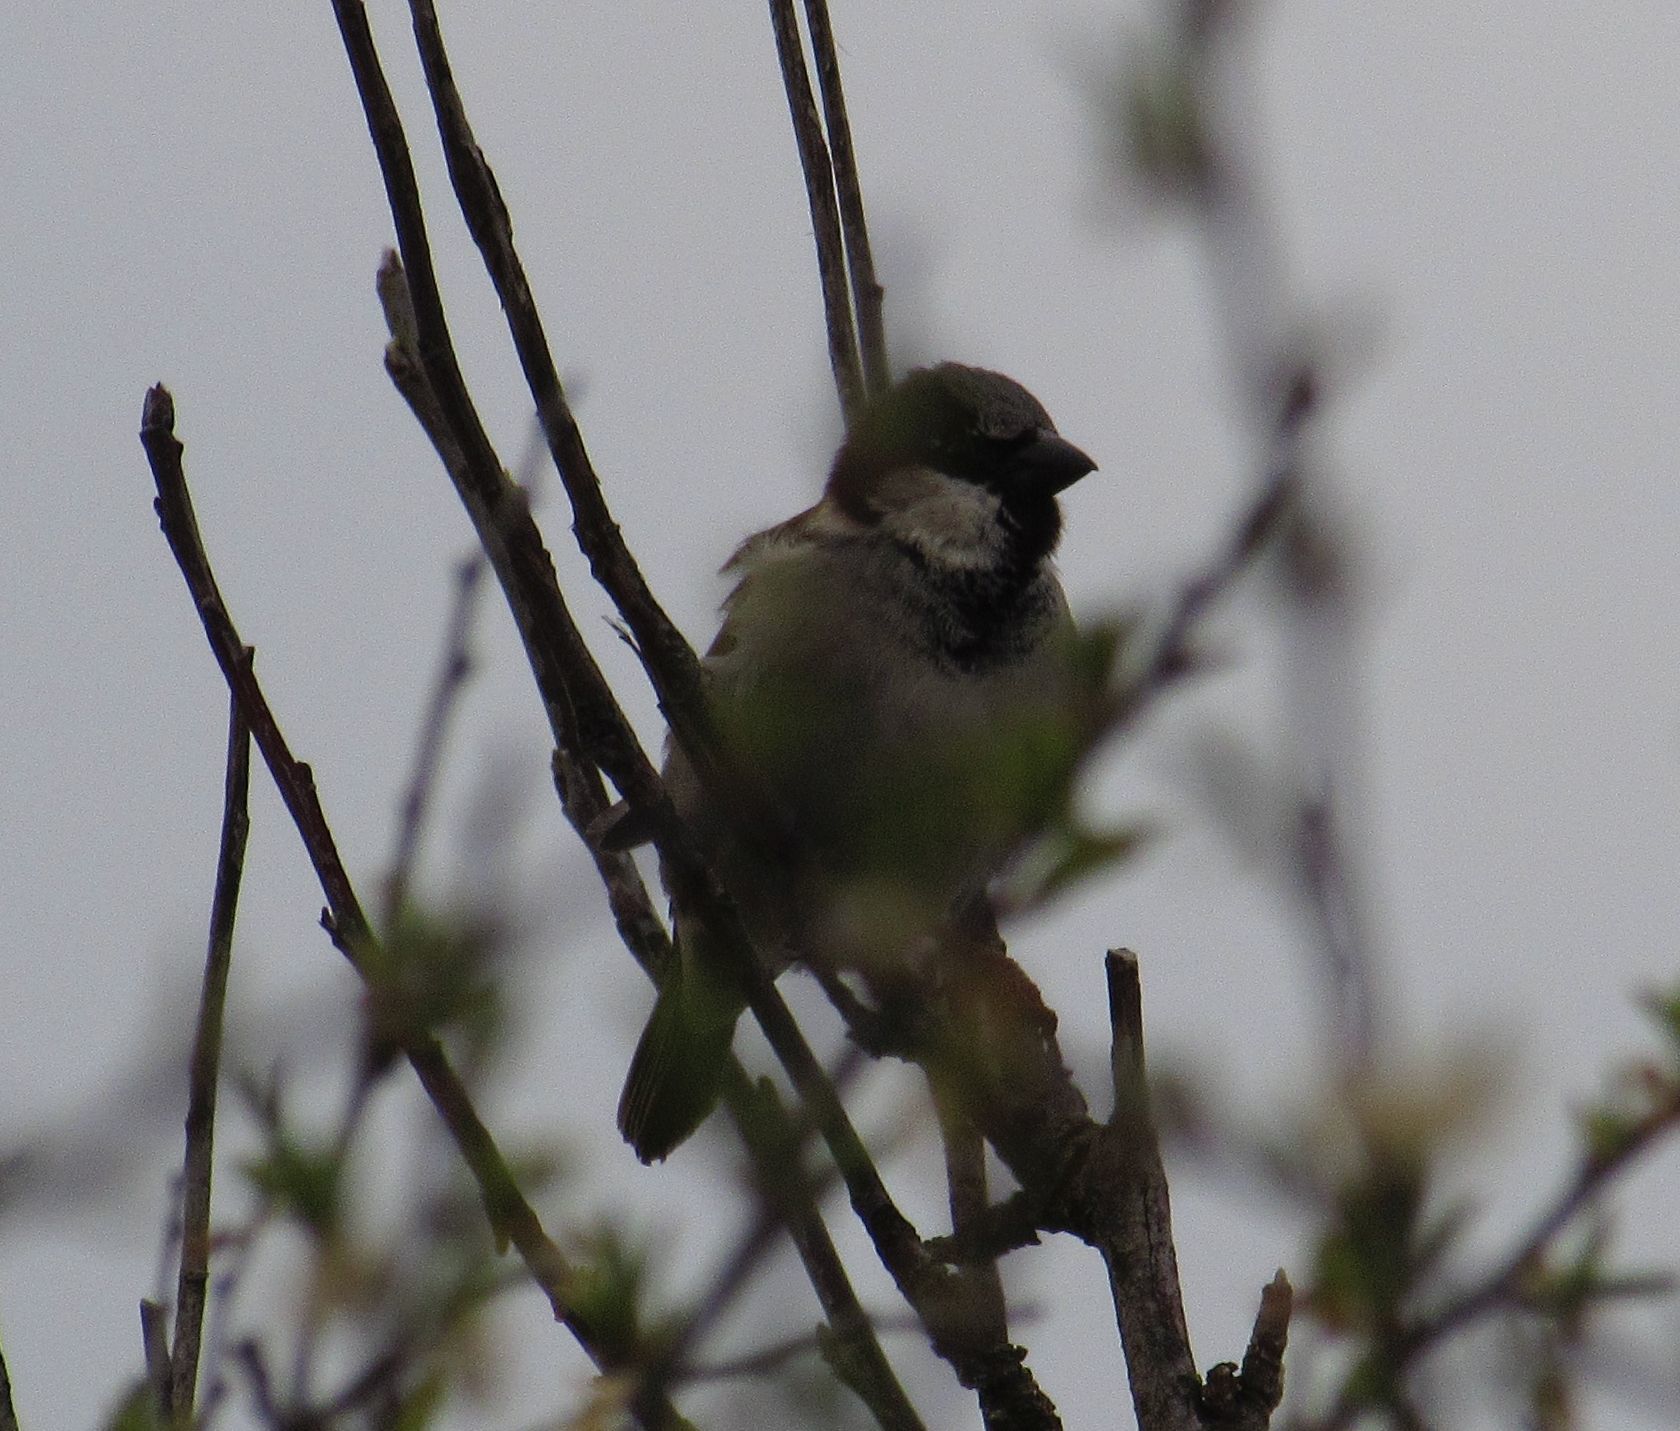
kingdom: Animalia
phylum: Chordata
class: Aves
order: Passeriformes
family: Passeridae
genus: Passer
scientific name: Passer domesticus
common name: House sparrow
